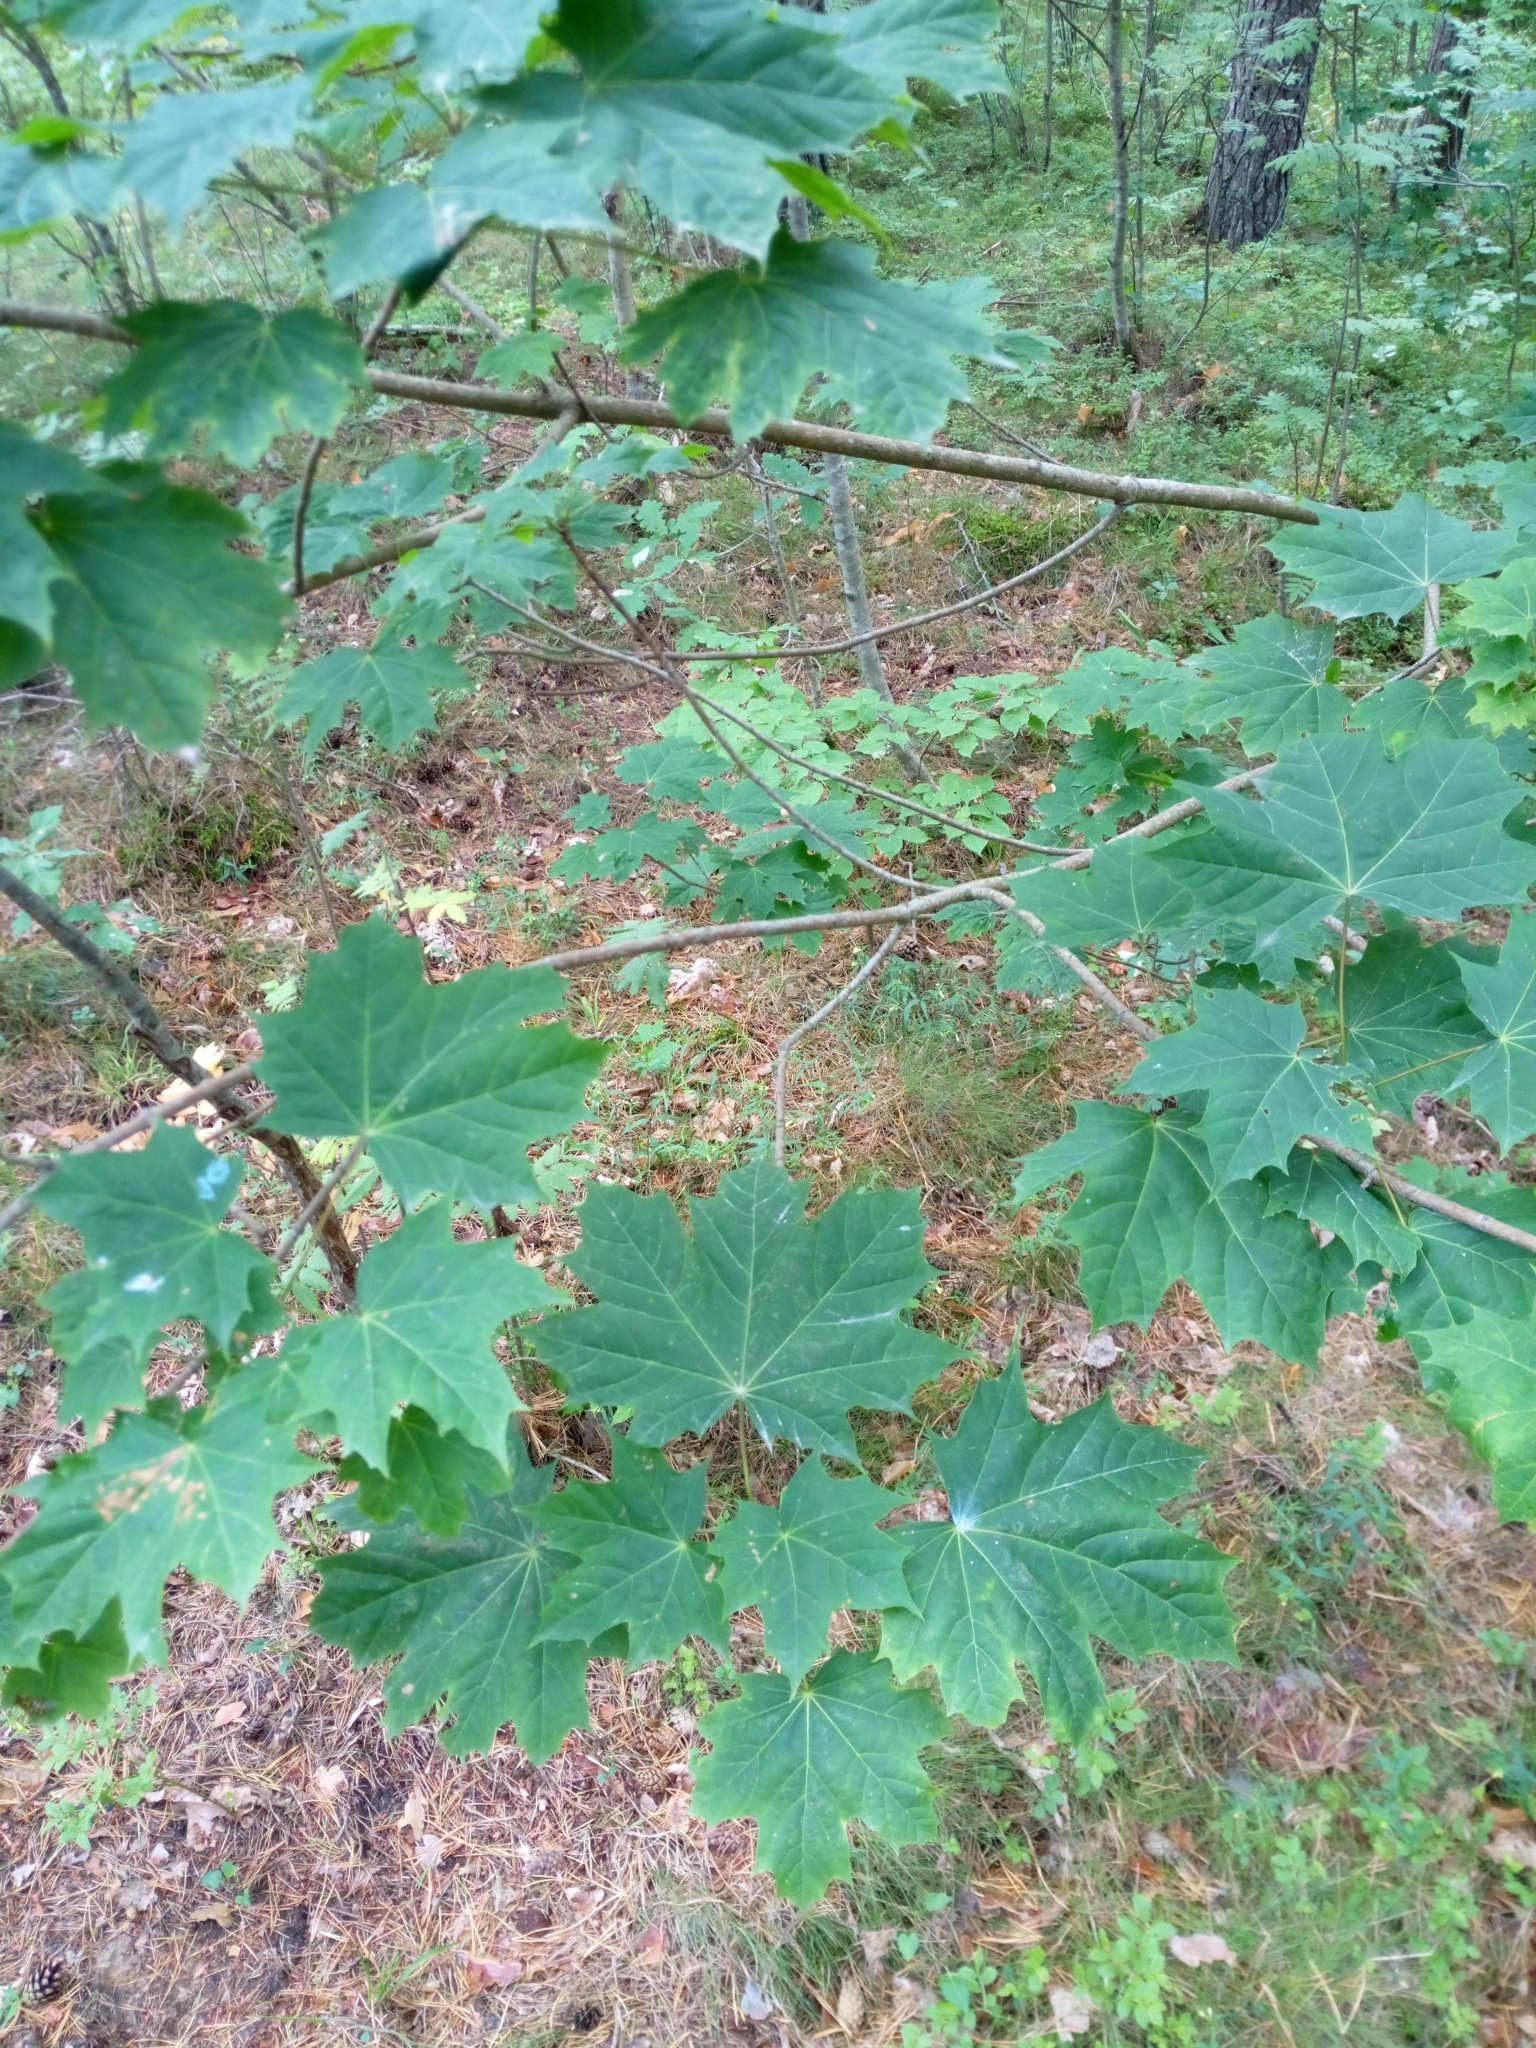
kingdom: Plantae
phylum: Tracheophyta
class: Magnoliopsida
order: Sapindales
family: Sapindaceae
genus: Acer
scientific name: Acer platanoides
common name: Norway maple
